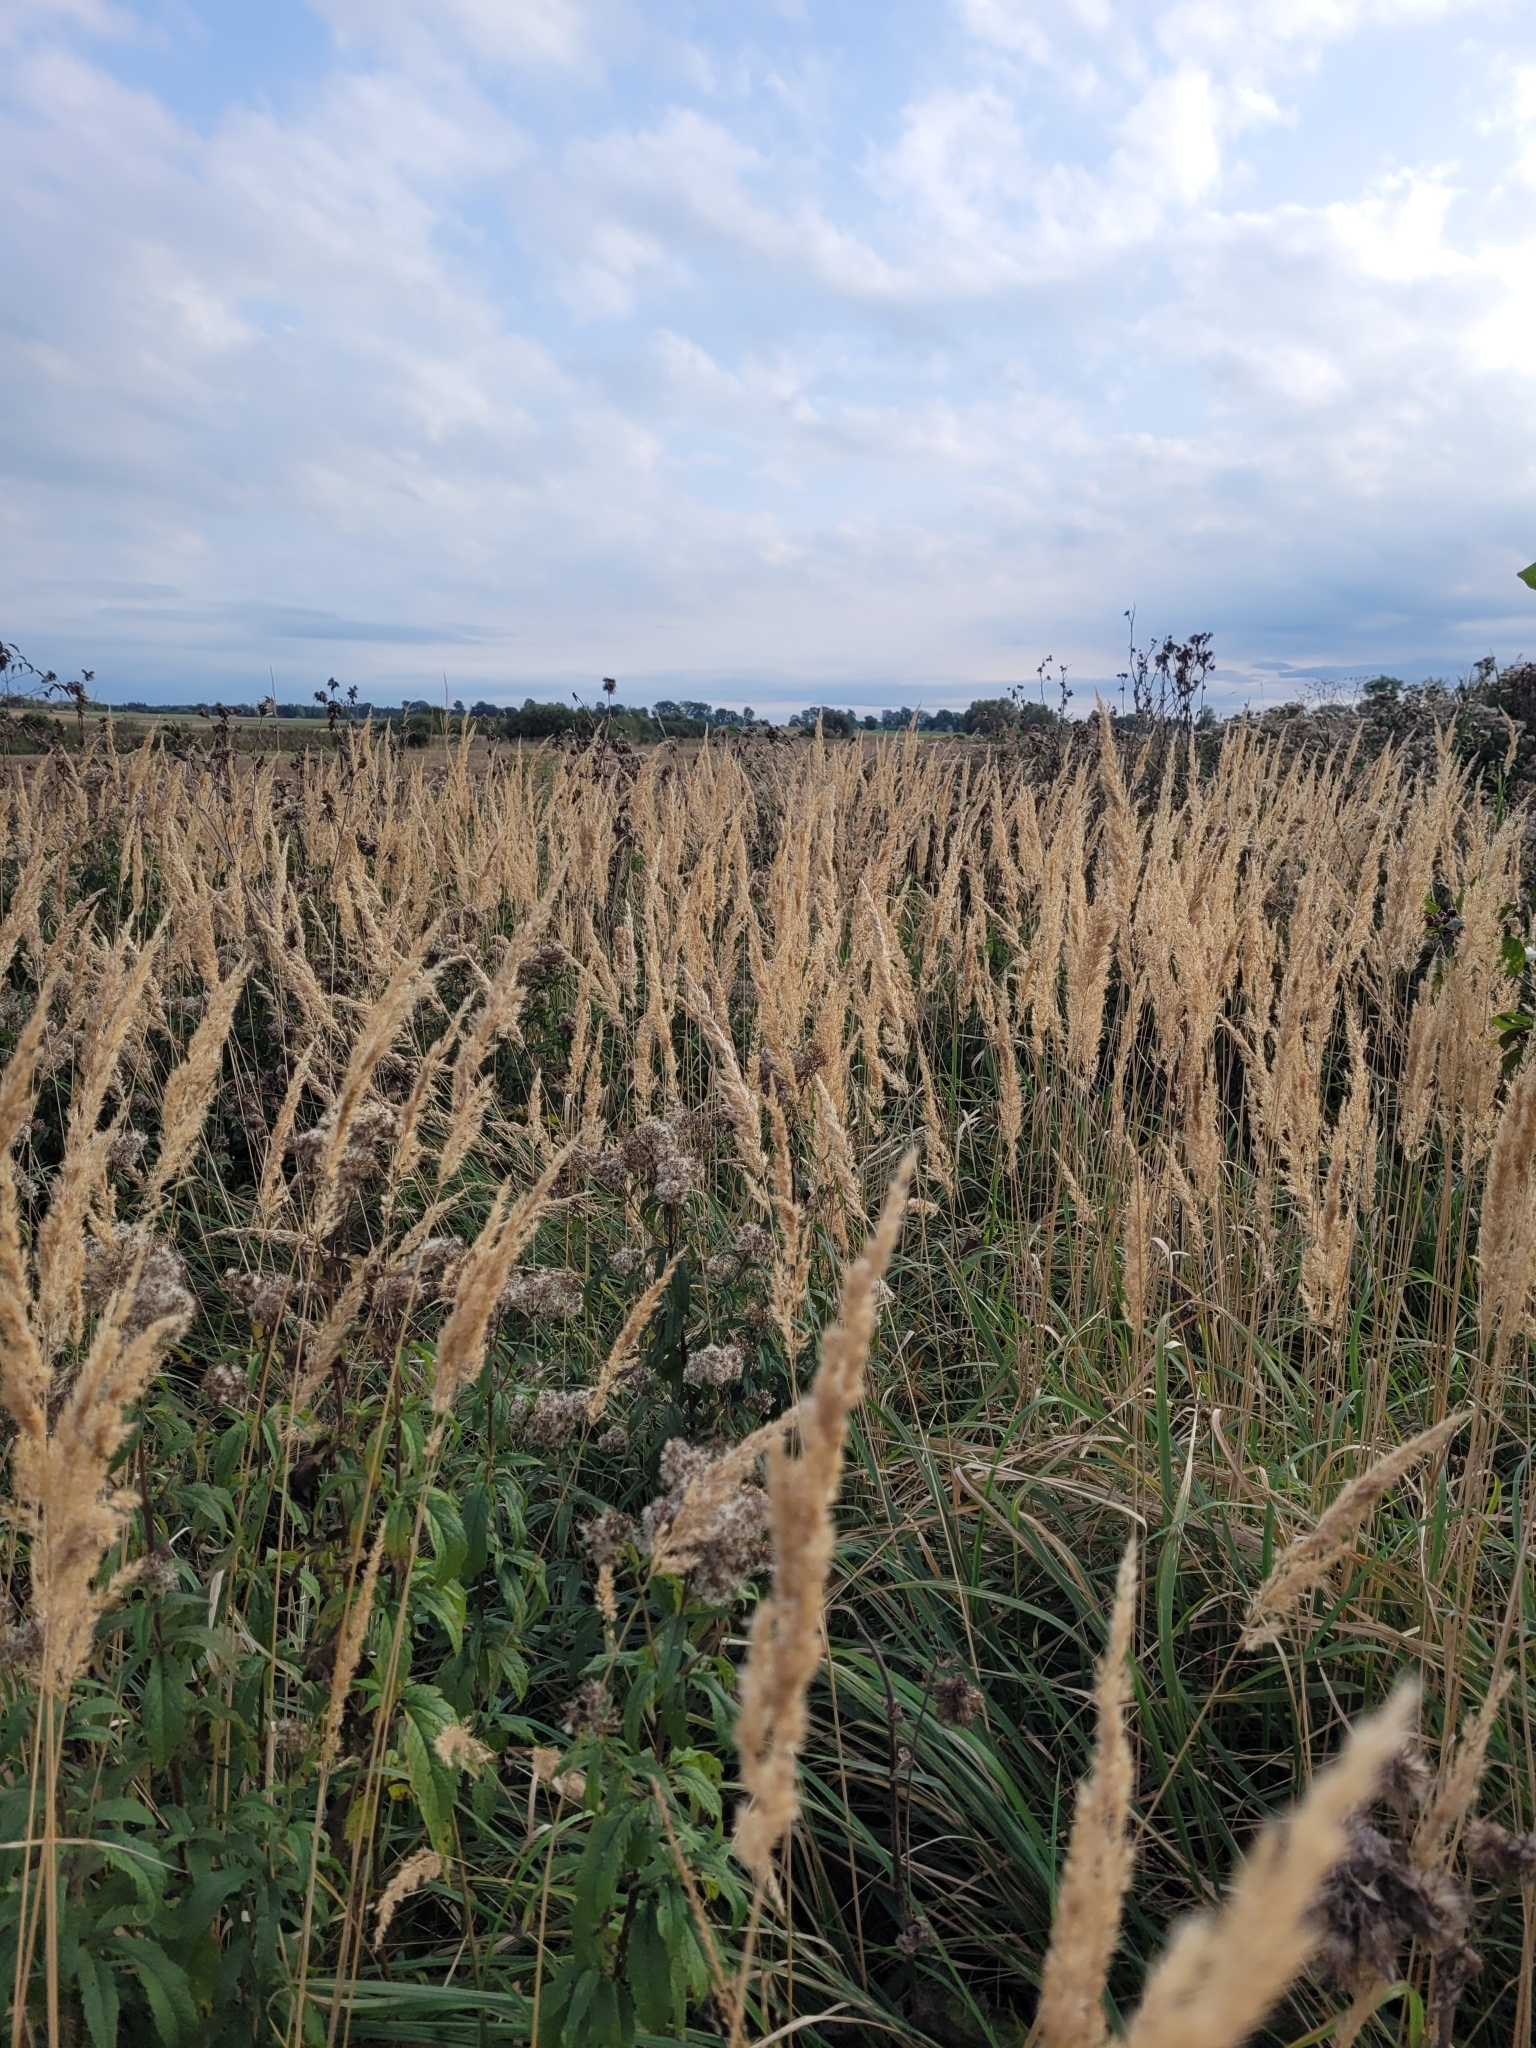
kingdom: Plantae
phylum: Tracheophyta
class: Liliopsida
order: Poales
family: Poaceae
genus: Calamagrostis
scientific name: Calamagrostis epigejos
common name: Wood small-reed
